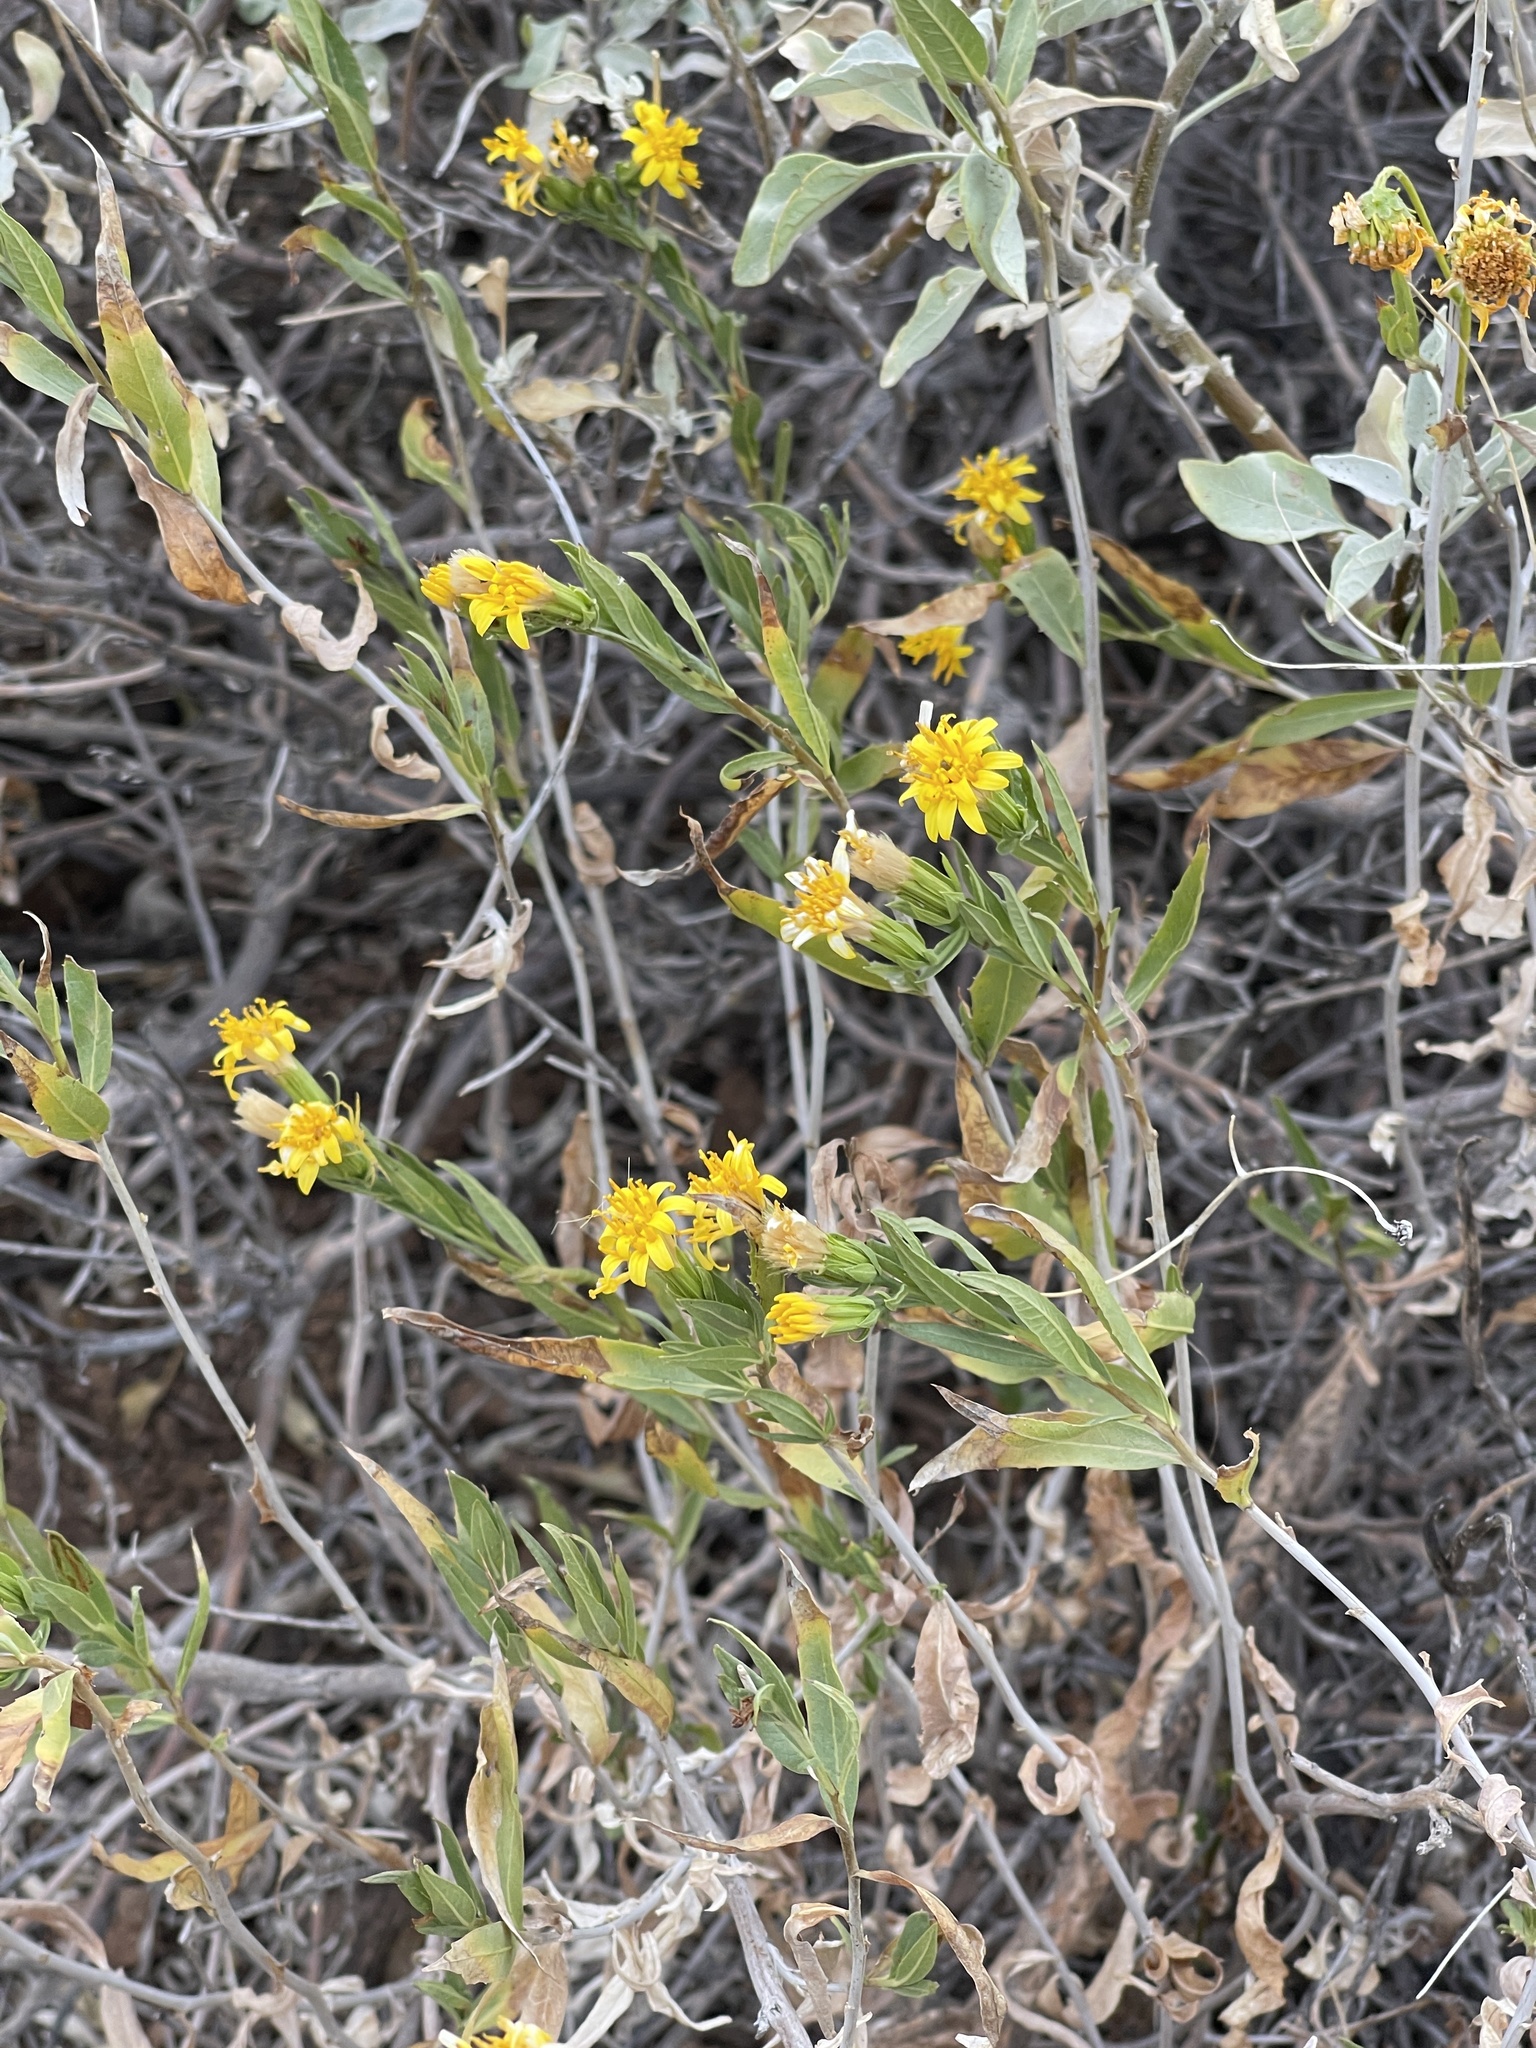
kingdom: Plantae
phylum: Tracheophyta
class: Magnoliopsida
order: Asterales
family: Asteraceae
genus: Trixis
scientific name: Trixis californica
